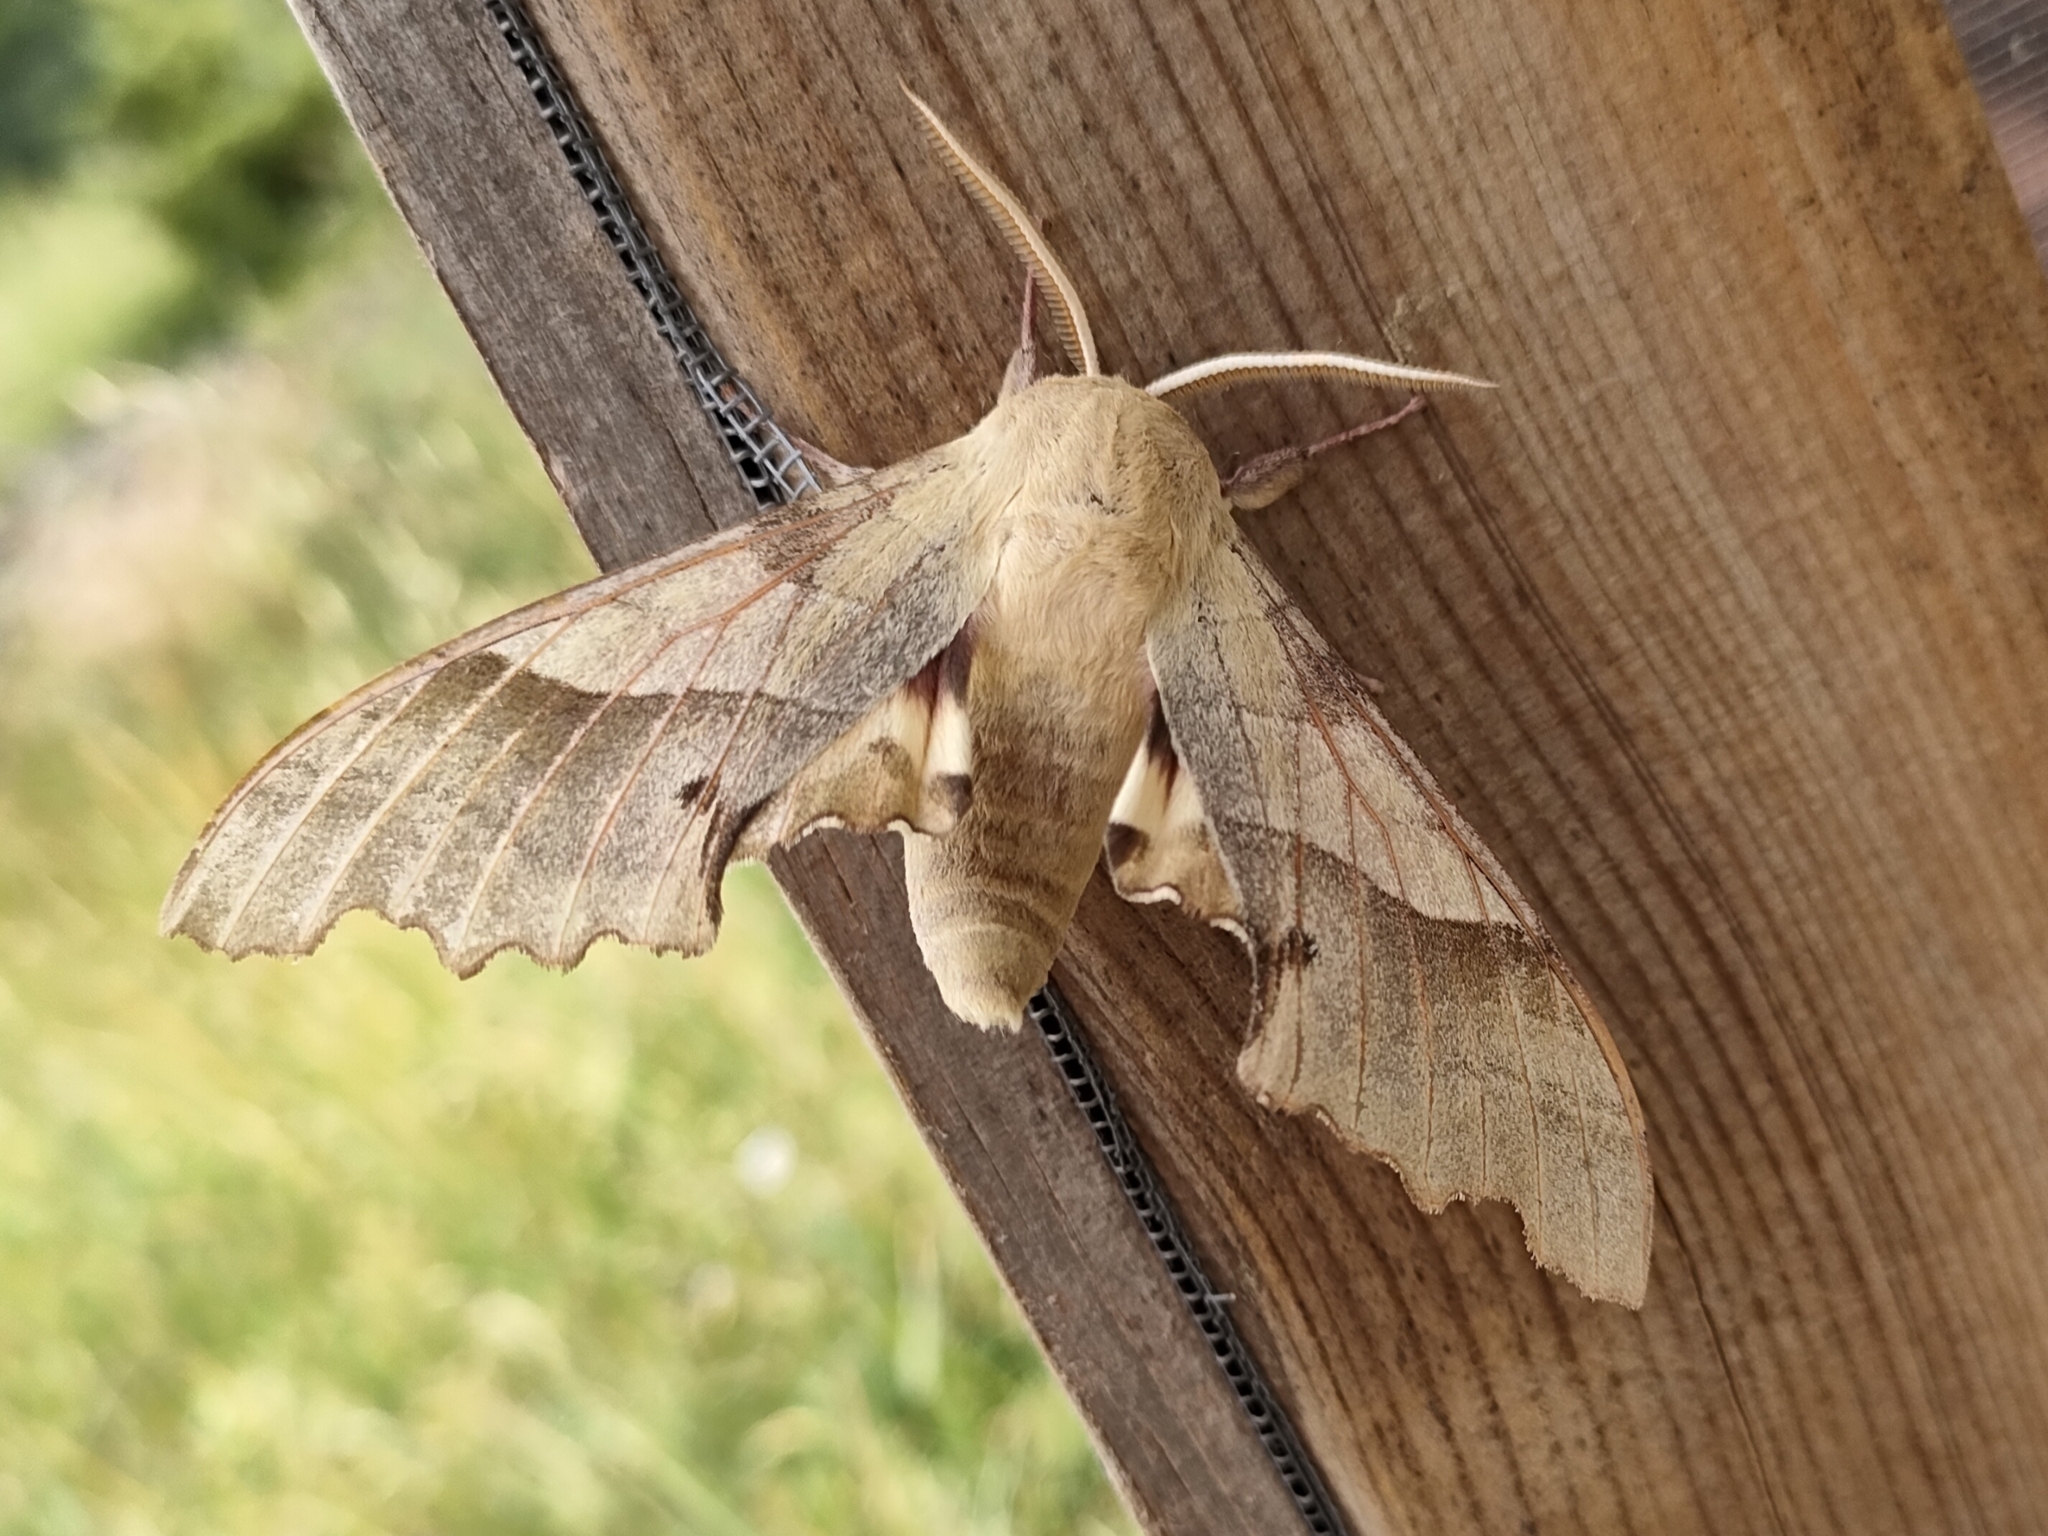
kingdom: Animalia
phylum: Arthropoda
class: Insecta
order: Lepidoptera
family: Sphingidae
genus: Marumba
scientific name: Marumba quercus
